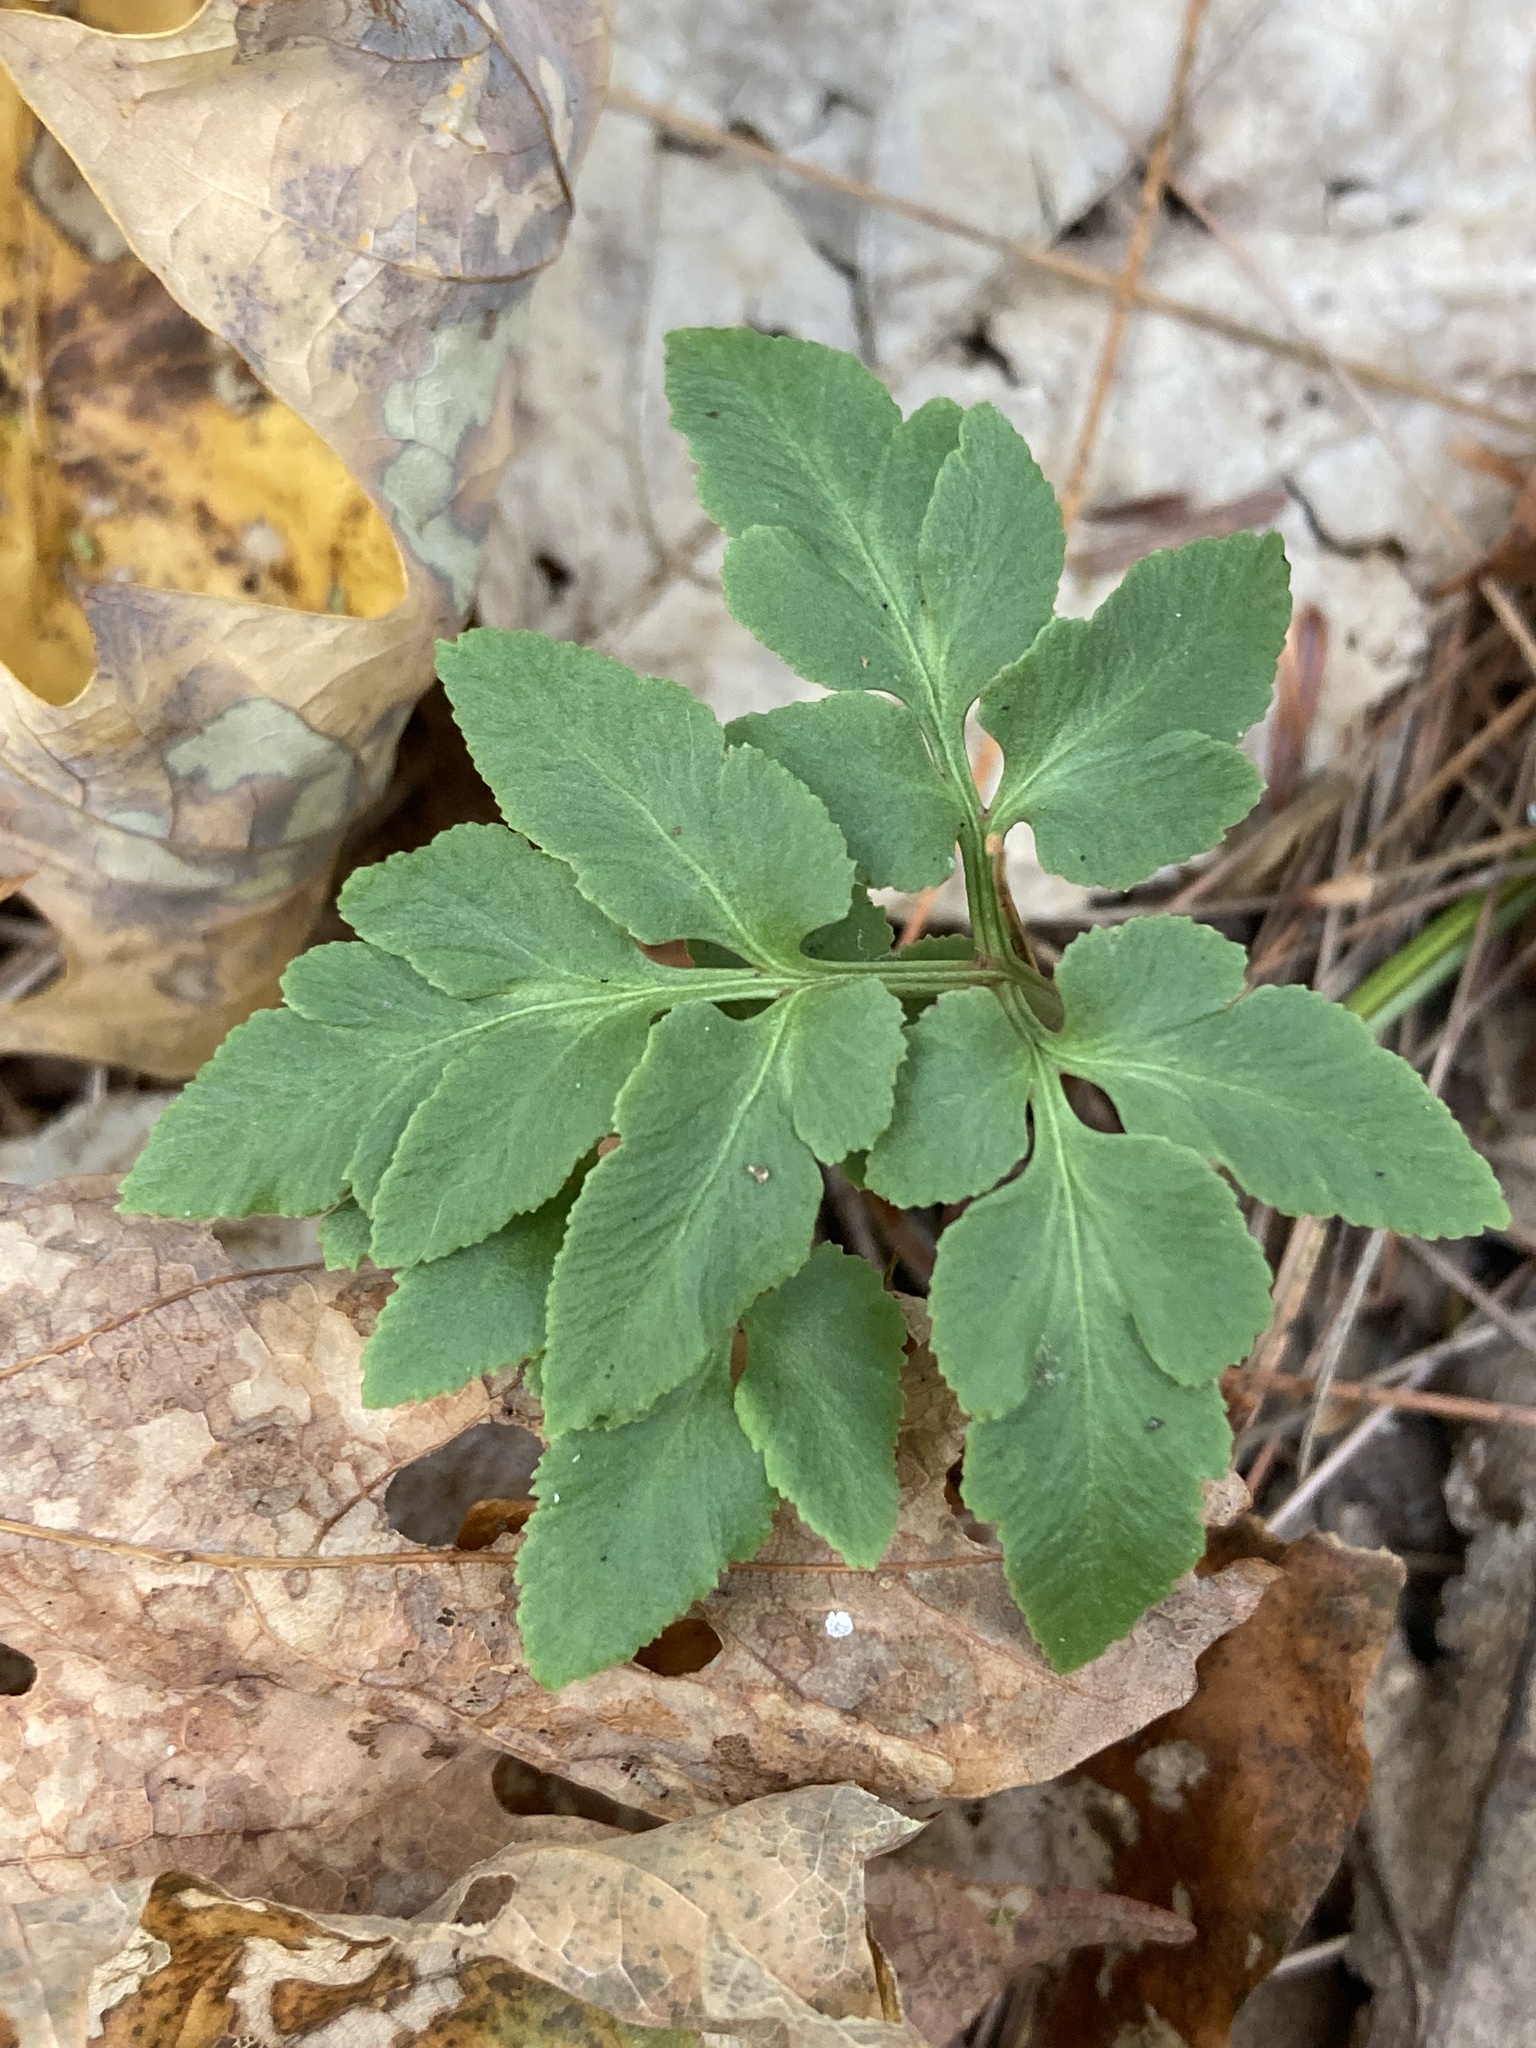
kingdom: Plantae
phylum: Tracheophyta
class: Polypodiopsida
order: Ophioglossales
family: Ophioglossaceae
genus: Sceptridium
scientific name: Sceptridium dissectum
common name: Cut-leaved grapefern
